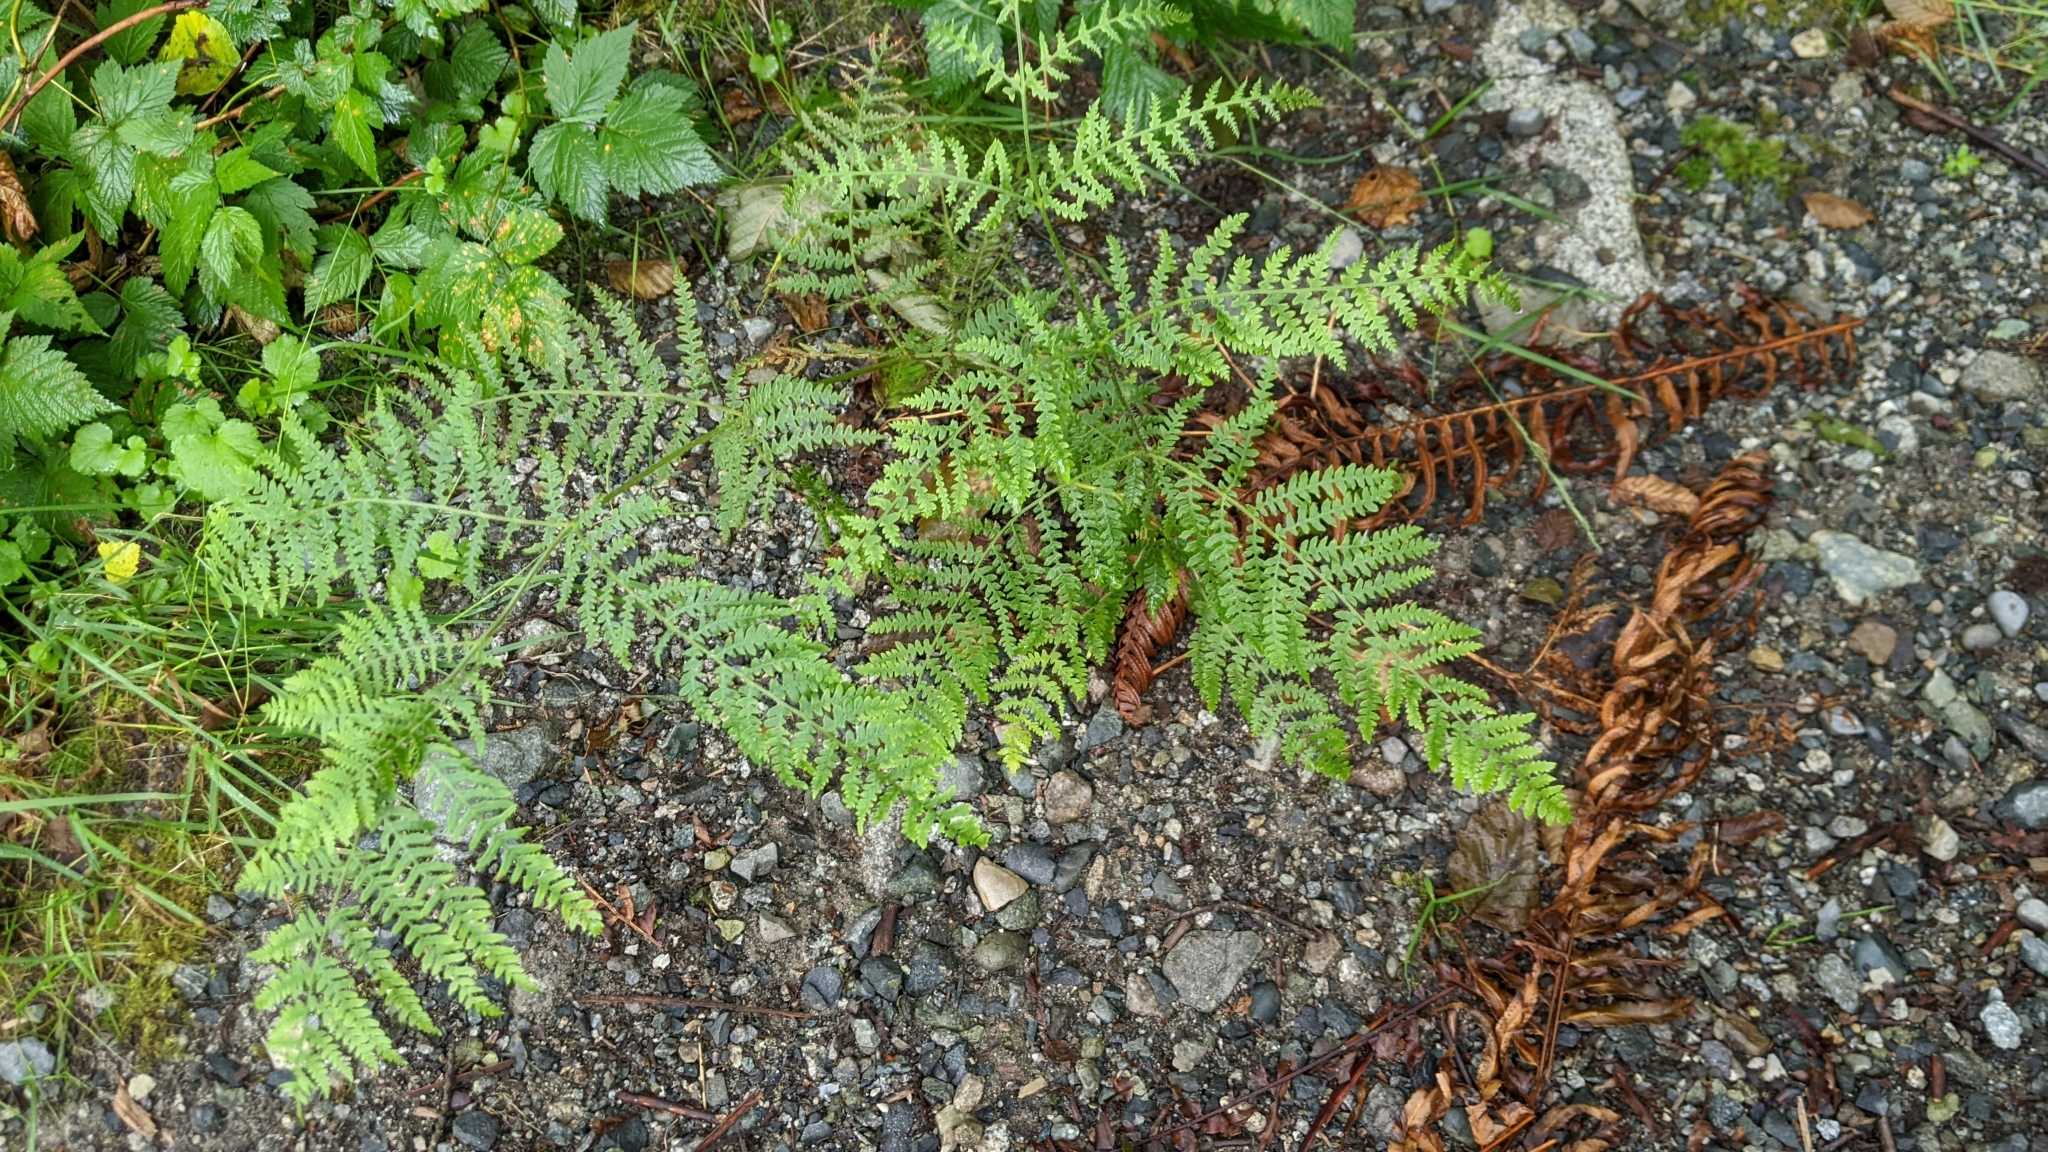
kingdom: Plantae
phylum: Tracheophyta
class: Polypodiopsida
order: Polypodiales
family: Dennstaedtiaceae
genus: Pteridium
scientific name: Pteridium aquilinum
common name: Bracken
